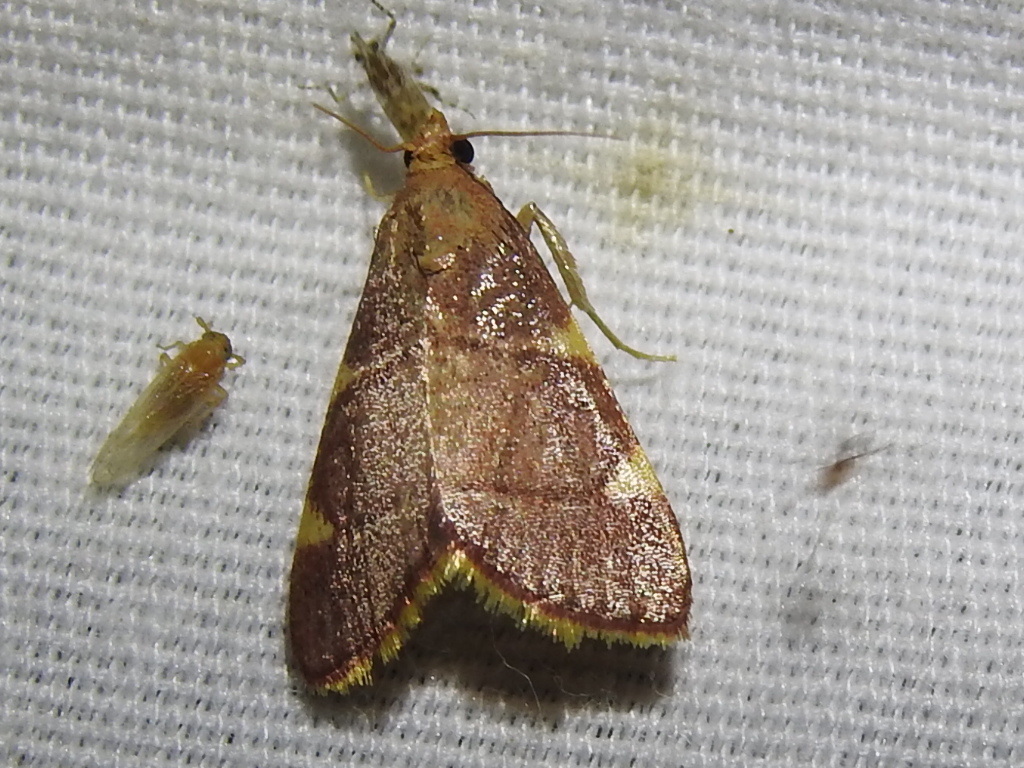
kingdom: Animalia
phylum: Arthropoda
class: Insecta
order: Lepidoptera
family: Pyralidae
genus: Hypsopygia
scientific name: Hypsopygia olinalis
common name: Yellow-fringed dolichomia moth
